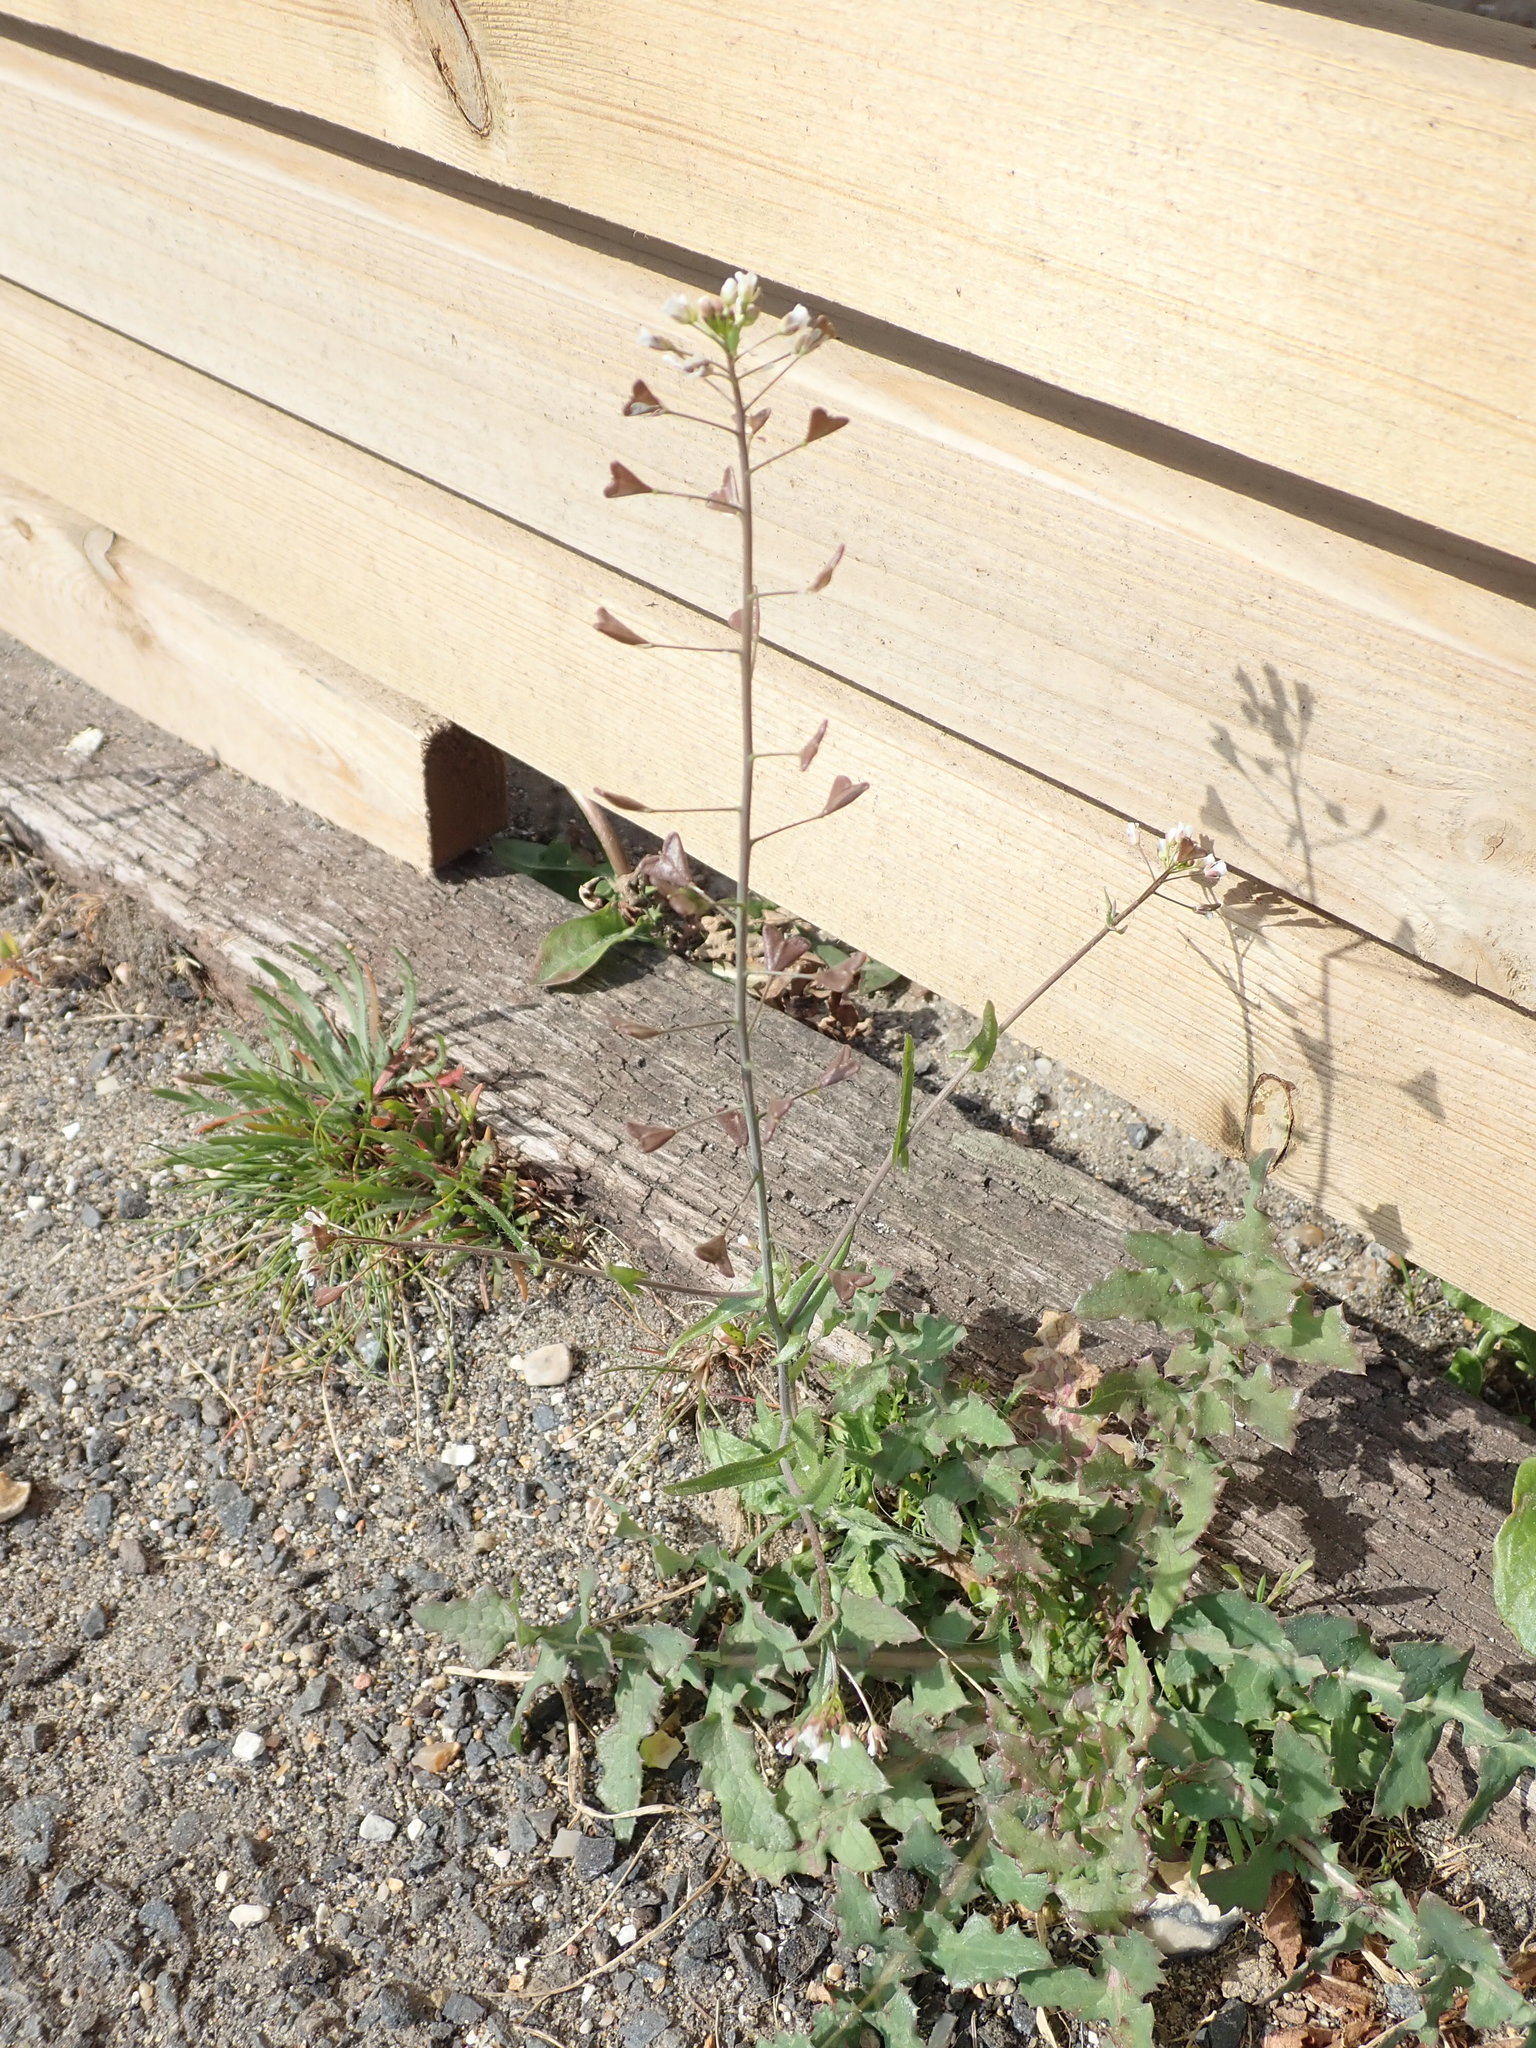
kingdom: Plantae
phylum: Tracheophyta
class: Magnoliopsida
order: Brassicales
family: Brassicaceae
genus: Capsella
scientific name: Capsella bursa-pastoris
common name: Shepherd's purse
